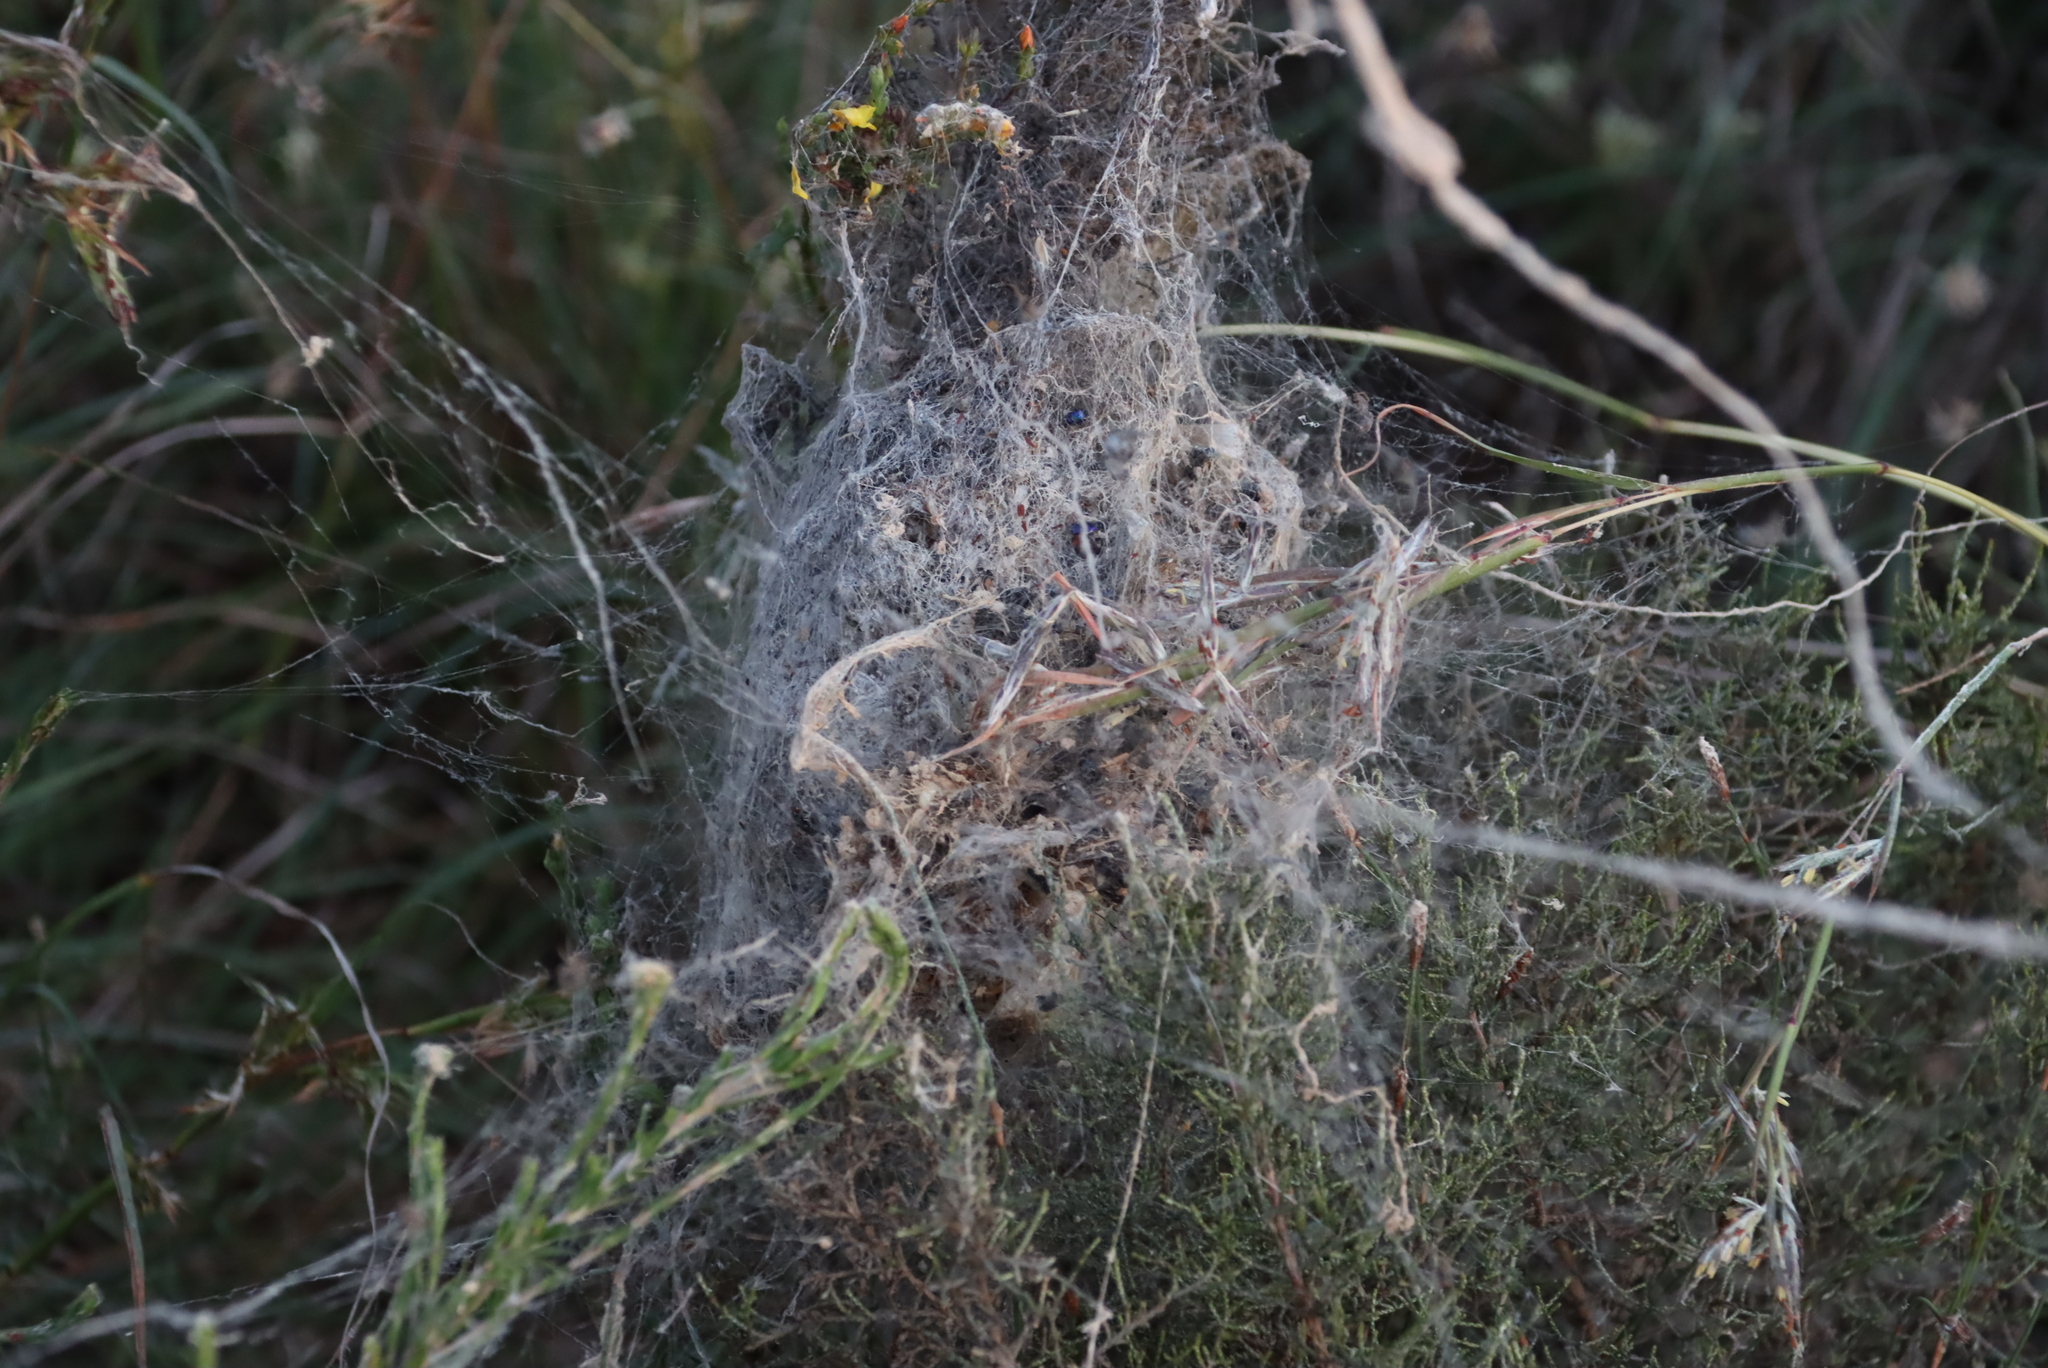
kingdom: Animalia
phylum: Arthropoda
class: Arachnida
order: Araneae
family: Eresidae
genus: Stegodyphus
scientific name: Stegodyphus dumicola
